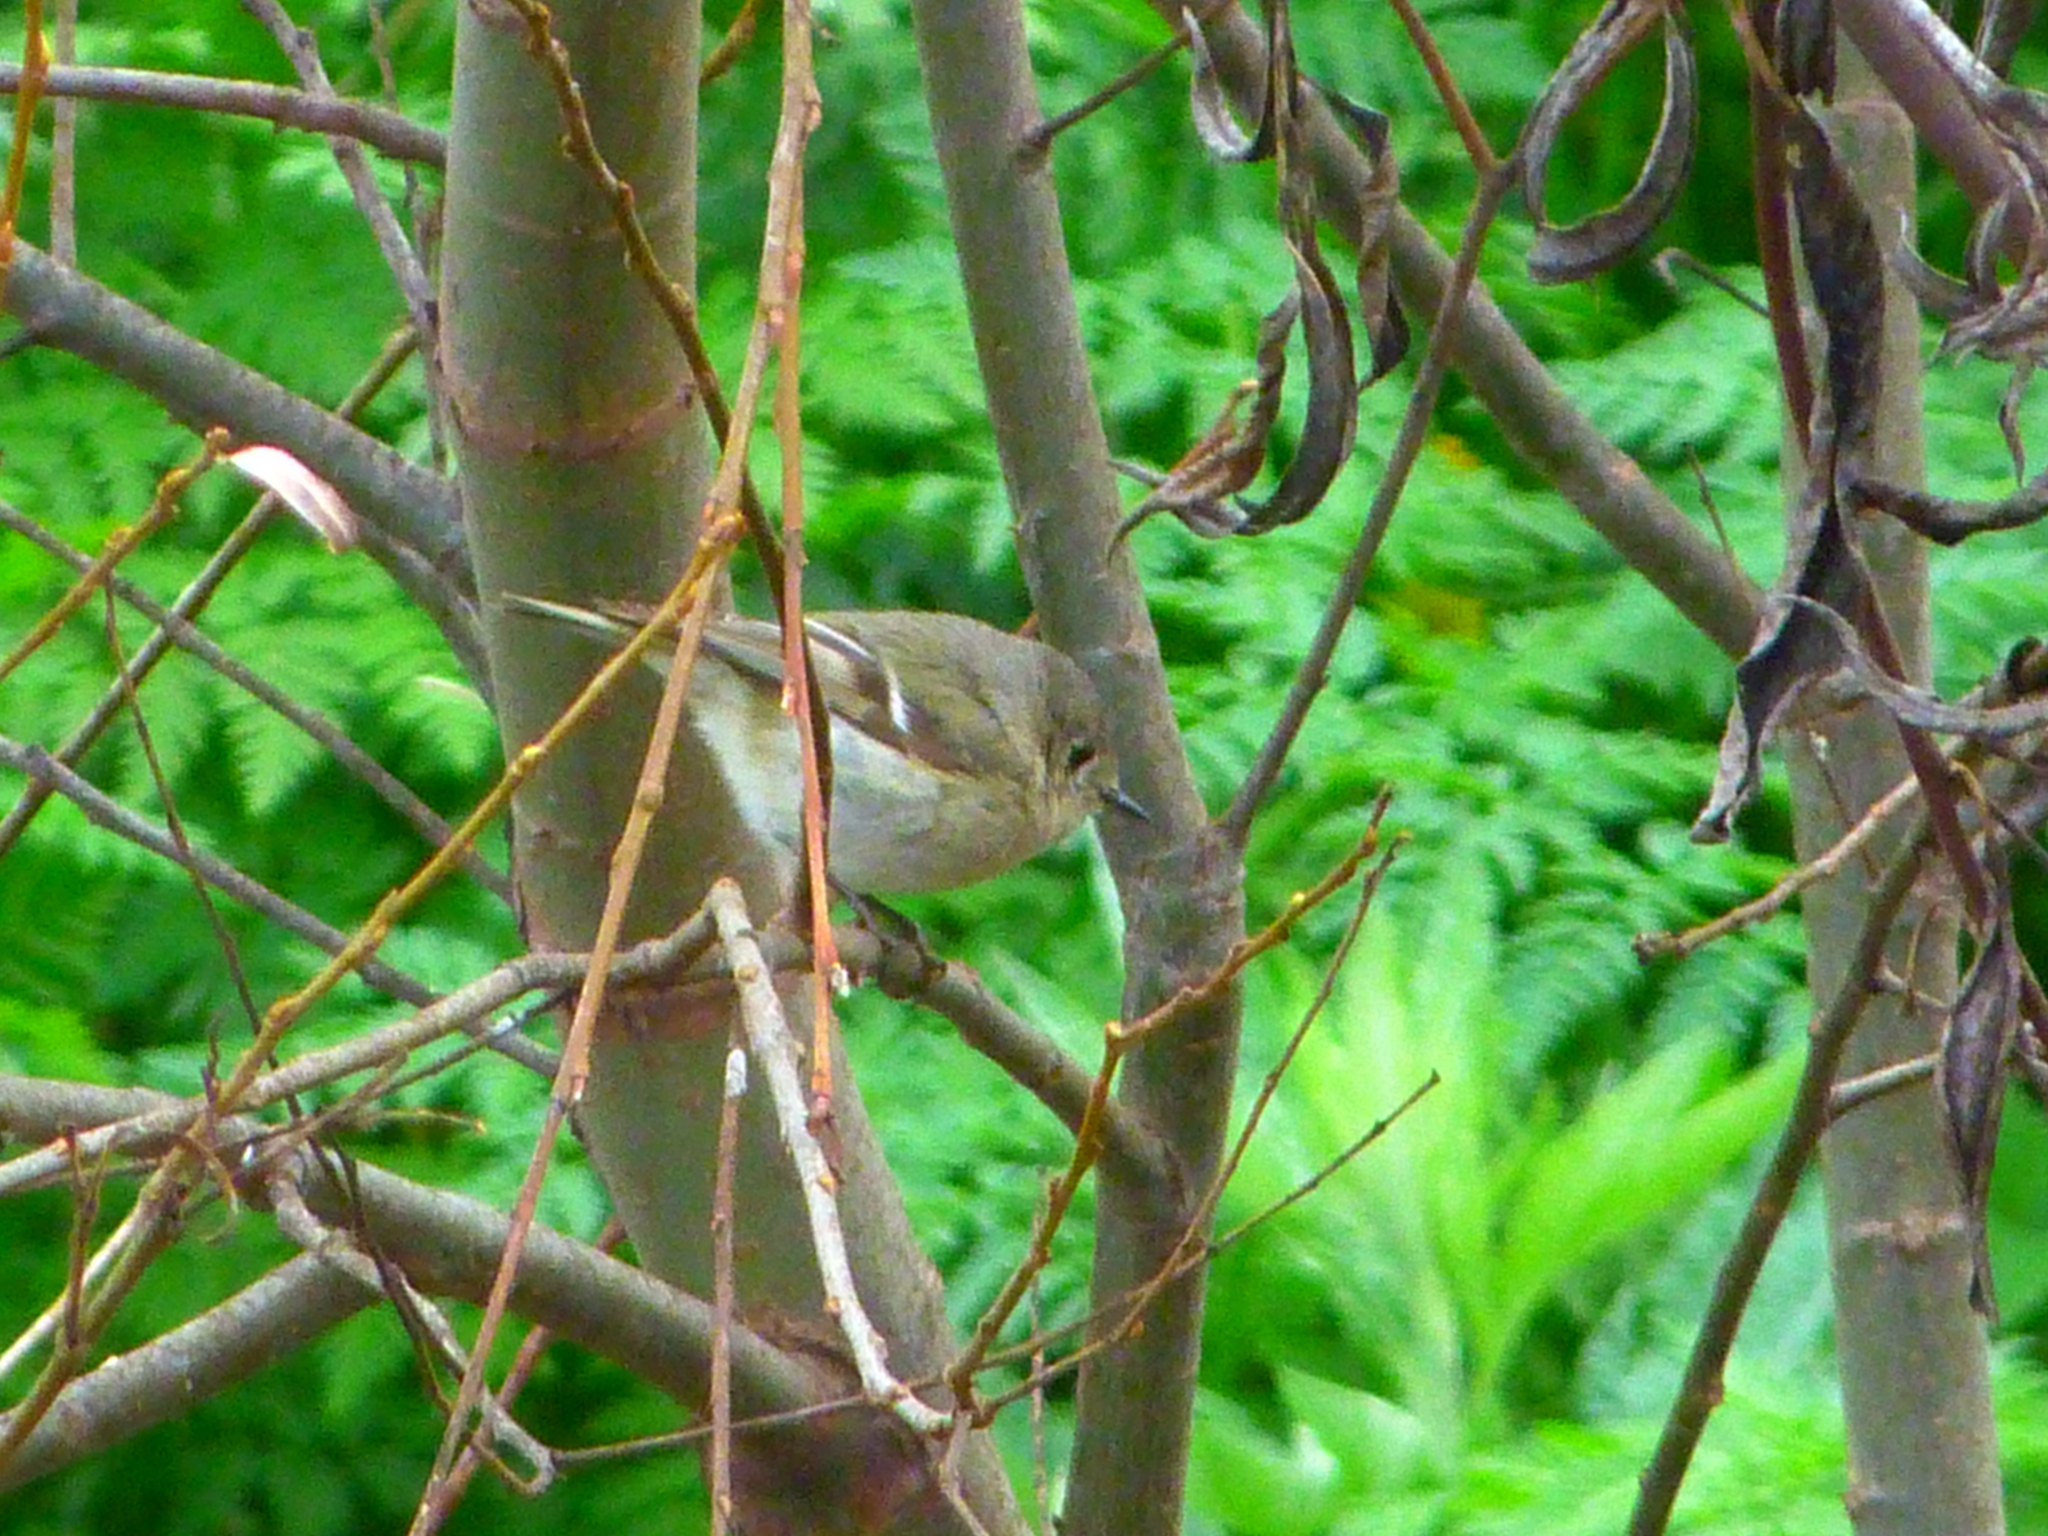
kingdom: Animalia
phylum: Chordata
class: Aves
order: Passeriformes
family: Regulidae
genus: Regulus
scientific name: Regulus calendula
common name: Ruby-crowned kinglet
